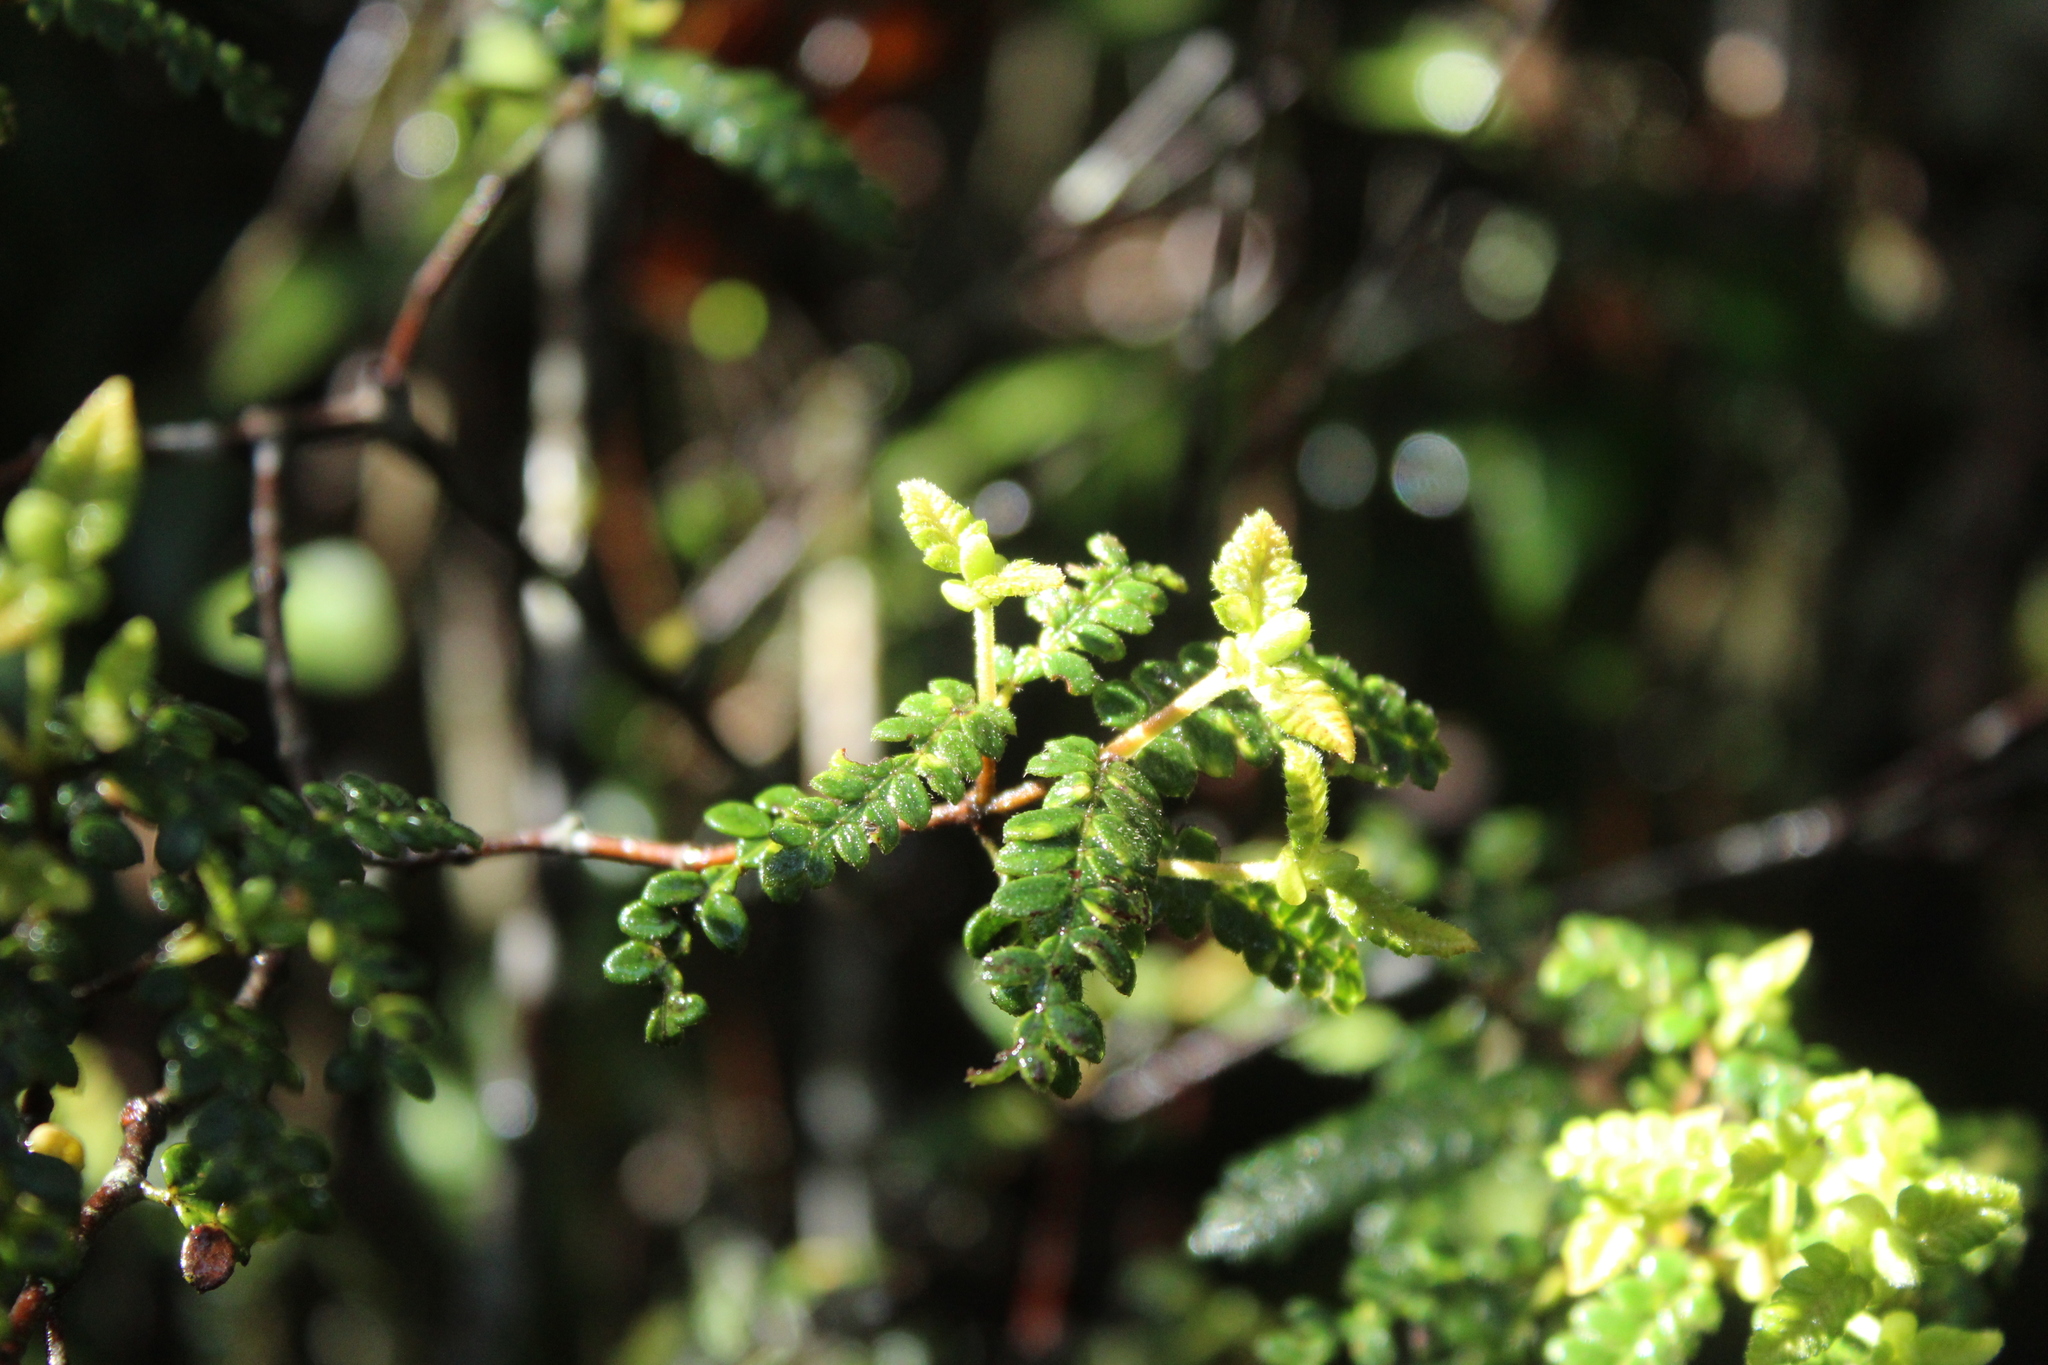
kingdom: Plantae
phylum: Tracheophyta
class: Magnoliopsida
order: Oxalidales
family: Cunoniaceae
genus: Weinmannia
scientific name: Weinmannia tomentosa
